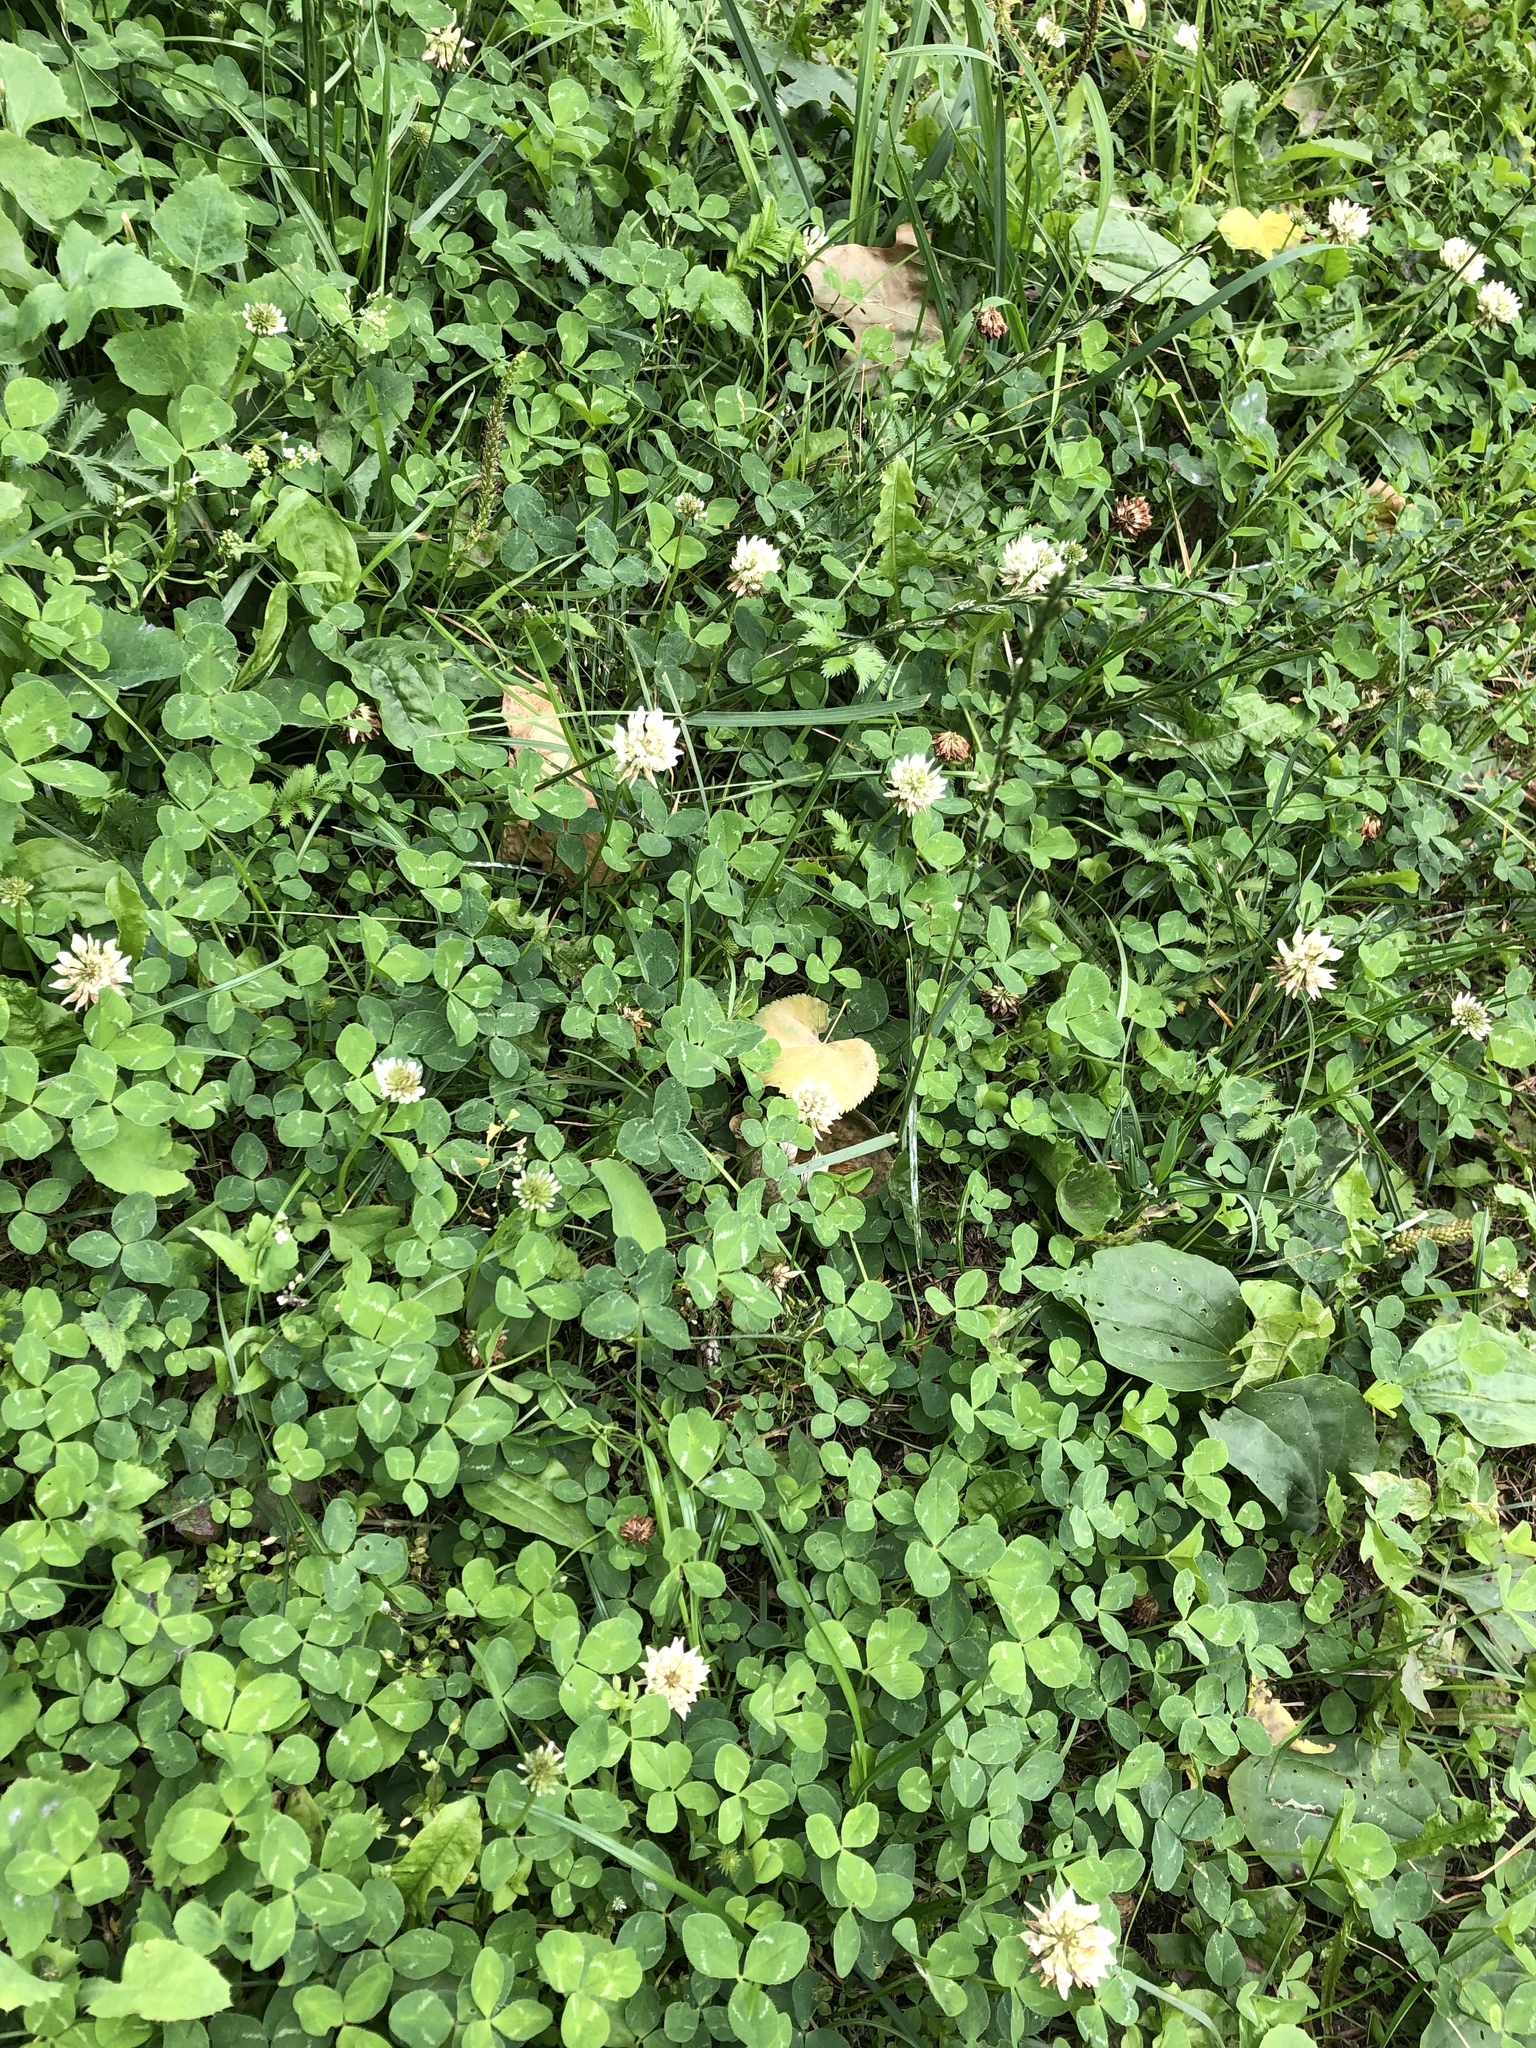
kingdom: Plantae
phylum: Tracheophyta
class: Magnoliopsida
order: Fabales
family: Fabaceae
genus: Trifolium
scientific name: Trifolium repens
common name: White clover
